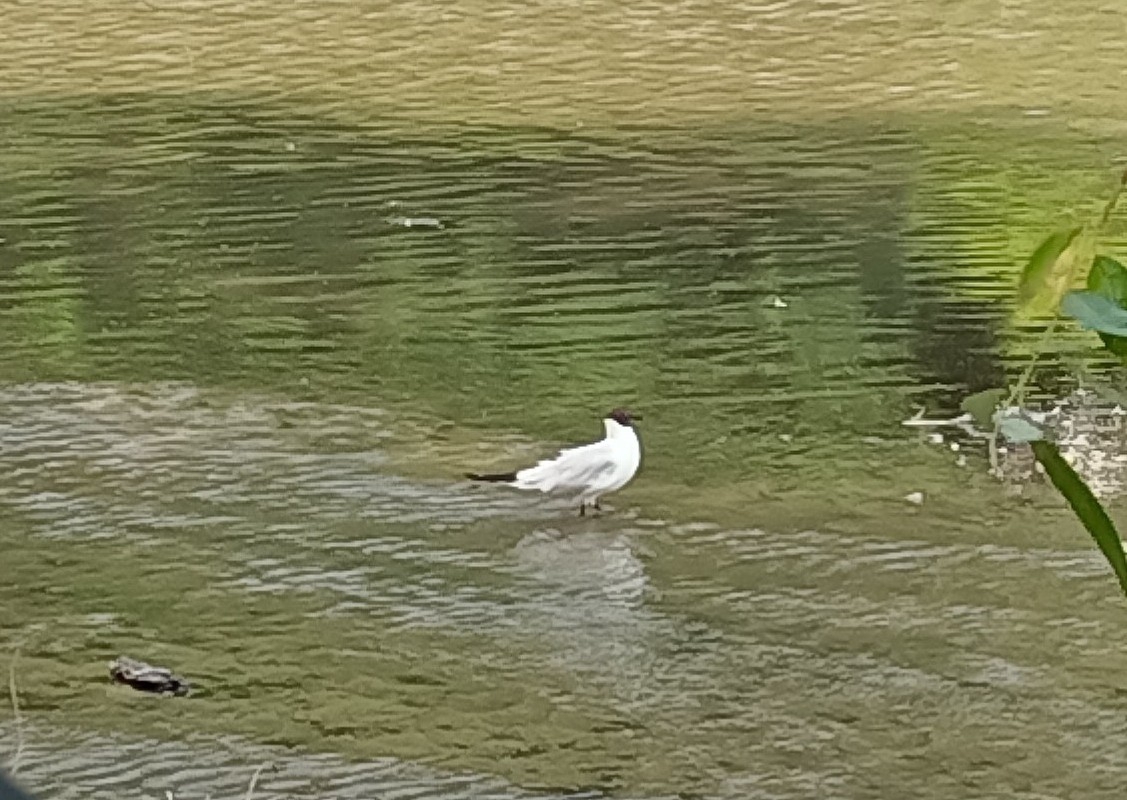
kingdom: Animalia
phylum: Chordata
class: Aves
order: Charadriiformes
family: Laridae
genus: Chroicocephalus
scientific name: Chroicocephalus ridibundus
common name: Black-headed gull
